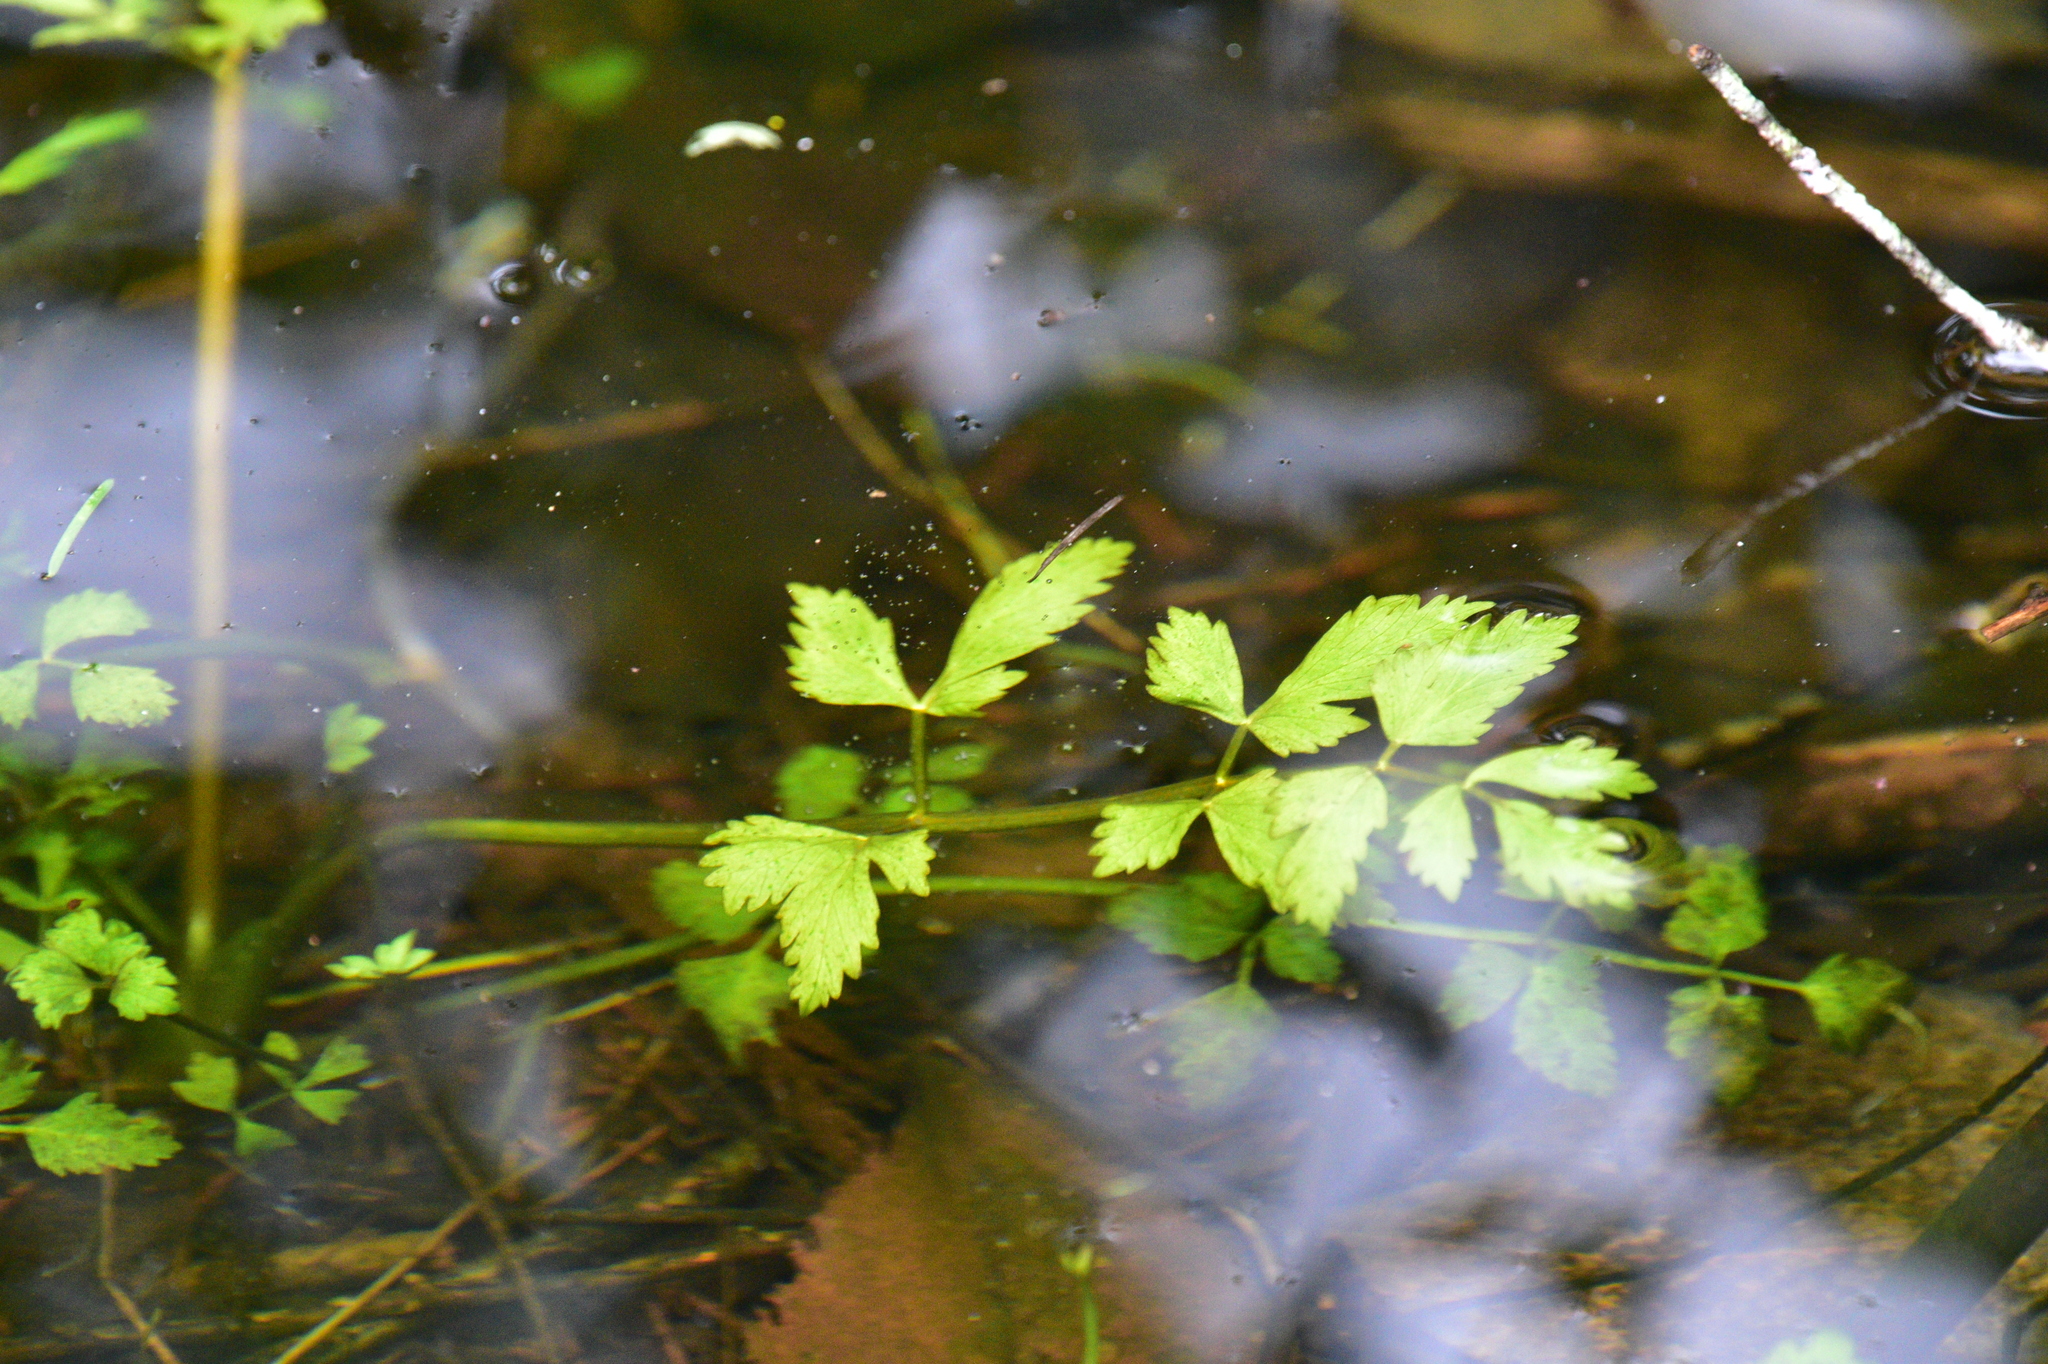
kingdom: Plantae
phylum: Tracheophyta
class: Magnoliopsida
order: Apiales
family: Apiaceae
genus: Oenanthe
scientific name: Oenanthe sarmentosa
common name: American water-parsley
